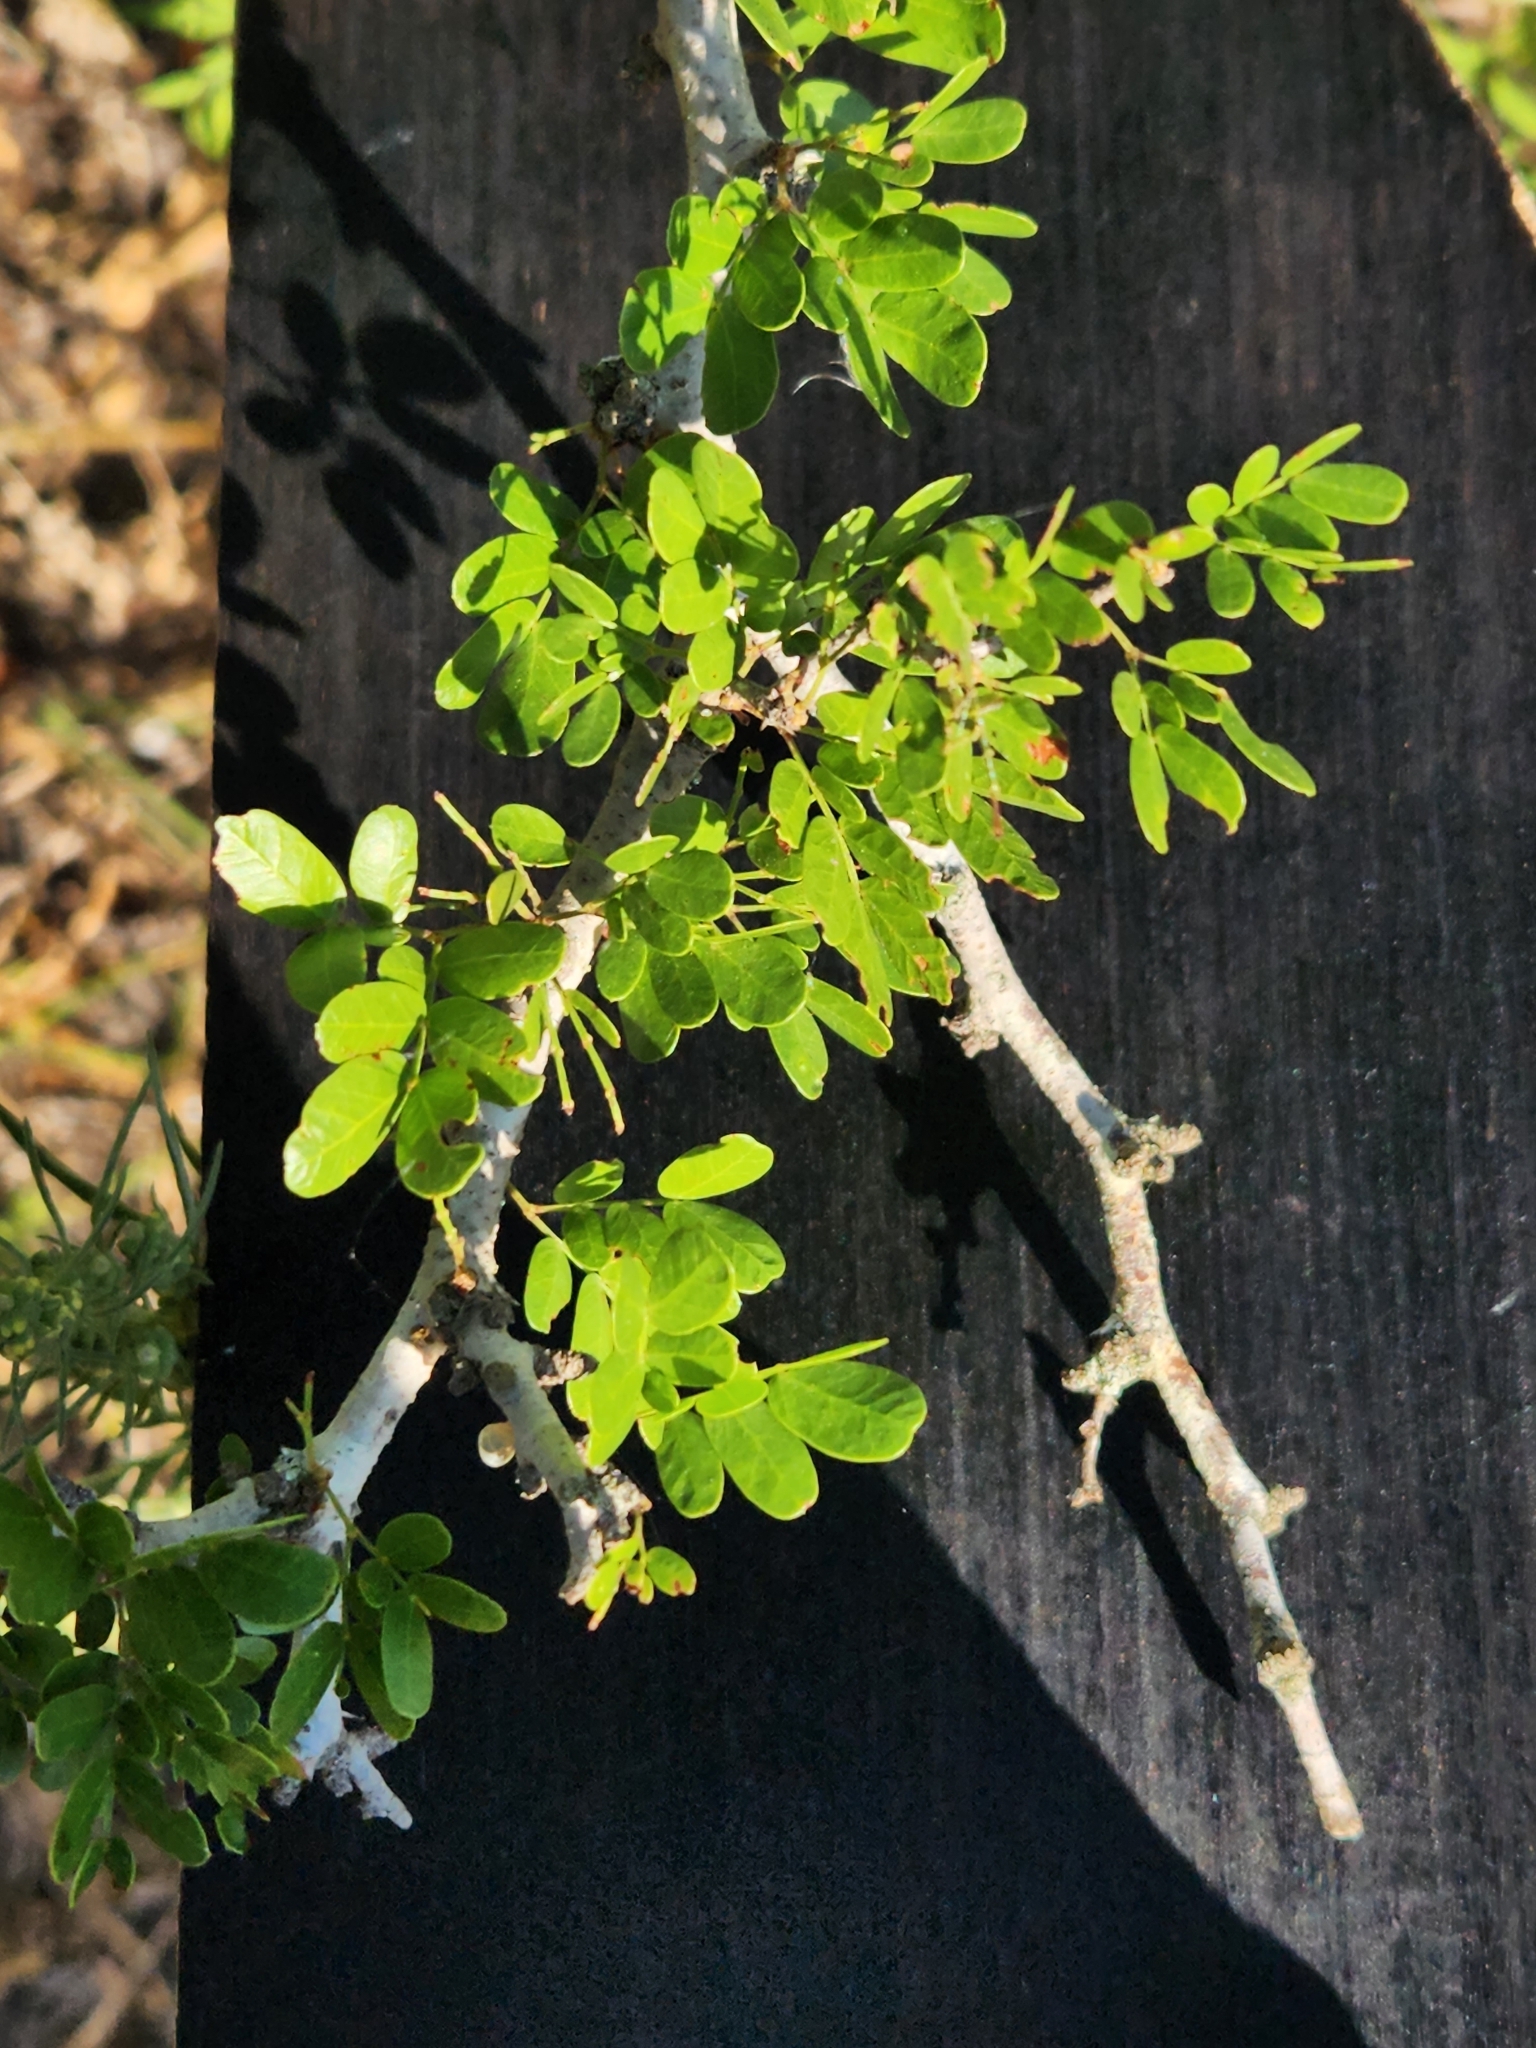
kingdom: Plantae
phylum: Tracheophyta
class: Magnoliopsida
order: Fabales
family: Fabaceae
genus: Vachellia
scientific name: Vachellia rigidula
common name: Blackbrush
